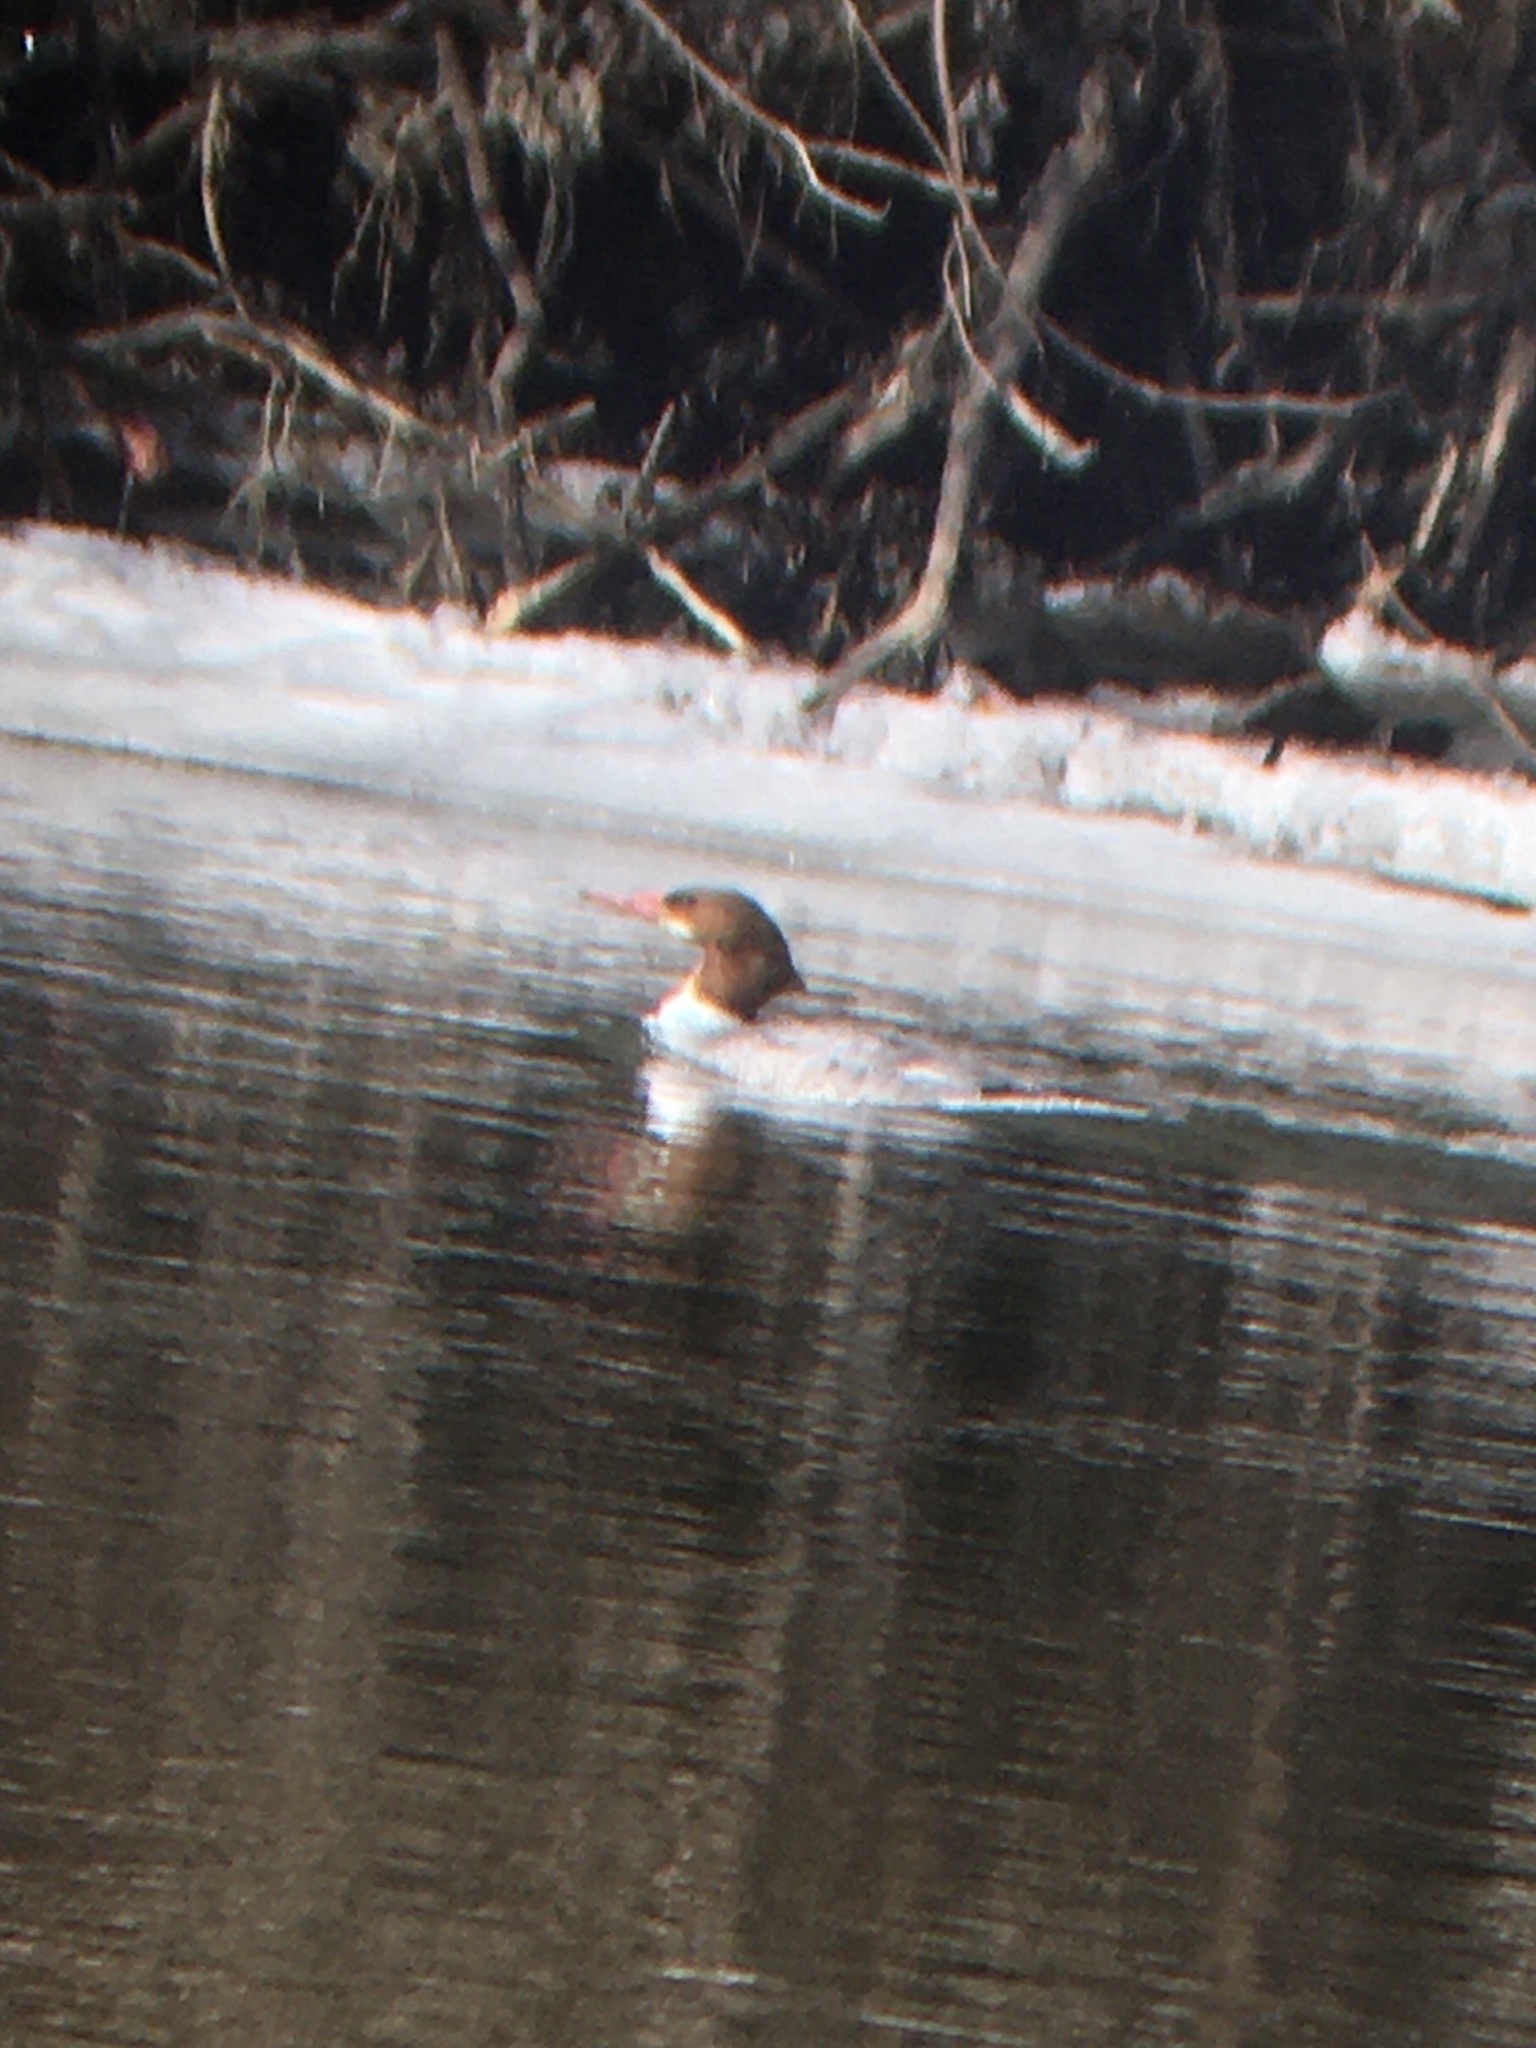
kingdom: Animalia
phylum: Chordata
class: Aves
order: Anseriformes
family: Anatidae
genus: Mergus
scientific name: Mergus merganser
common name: Common merganser
